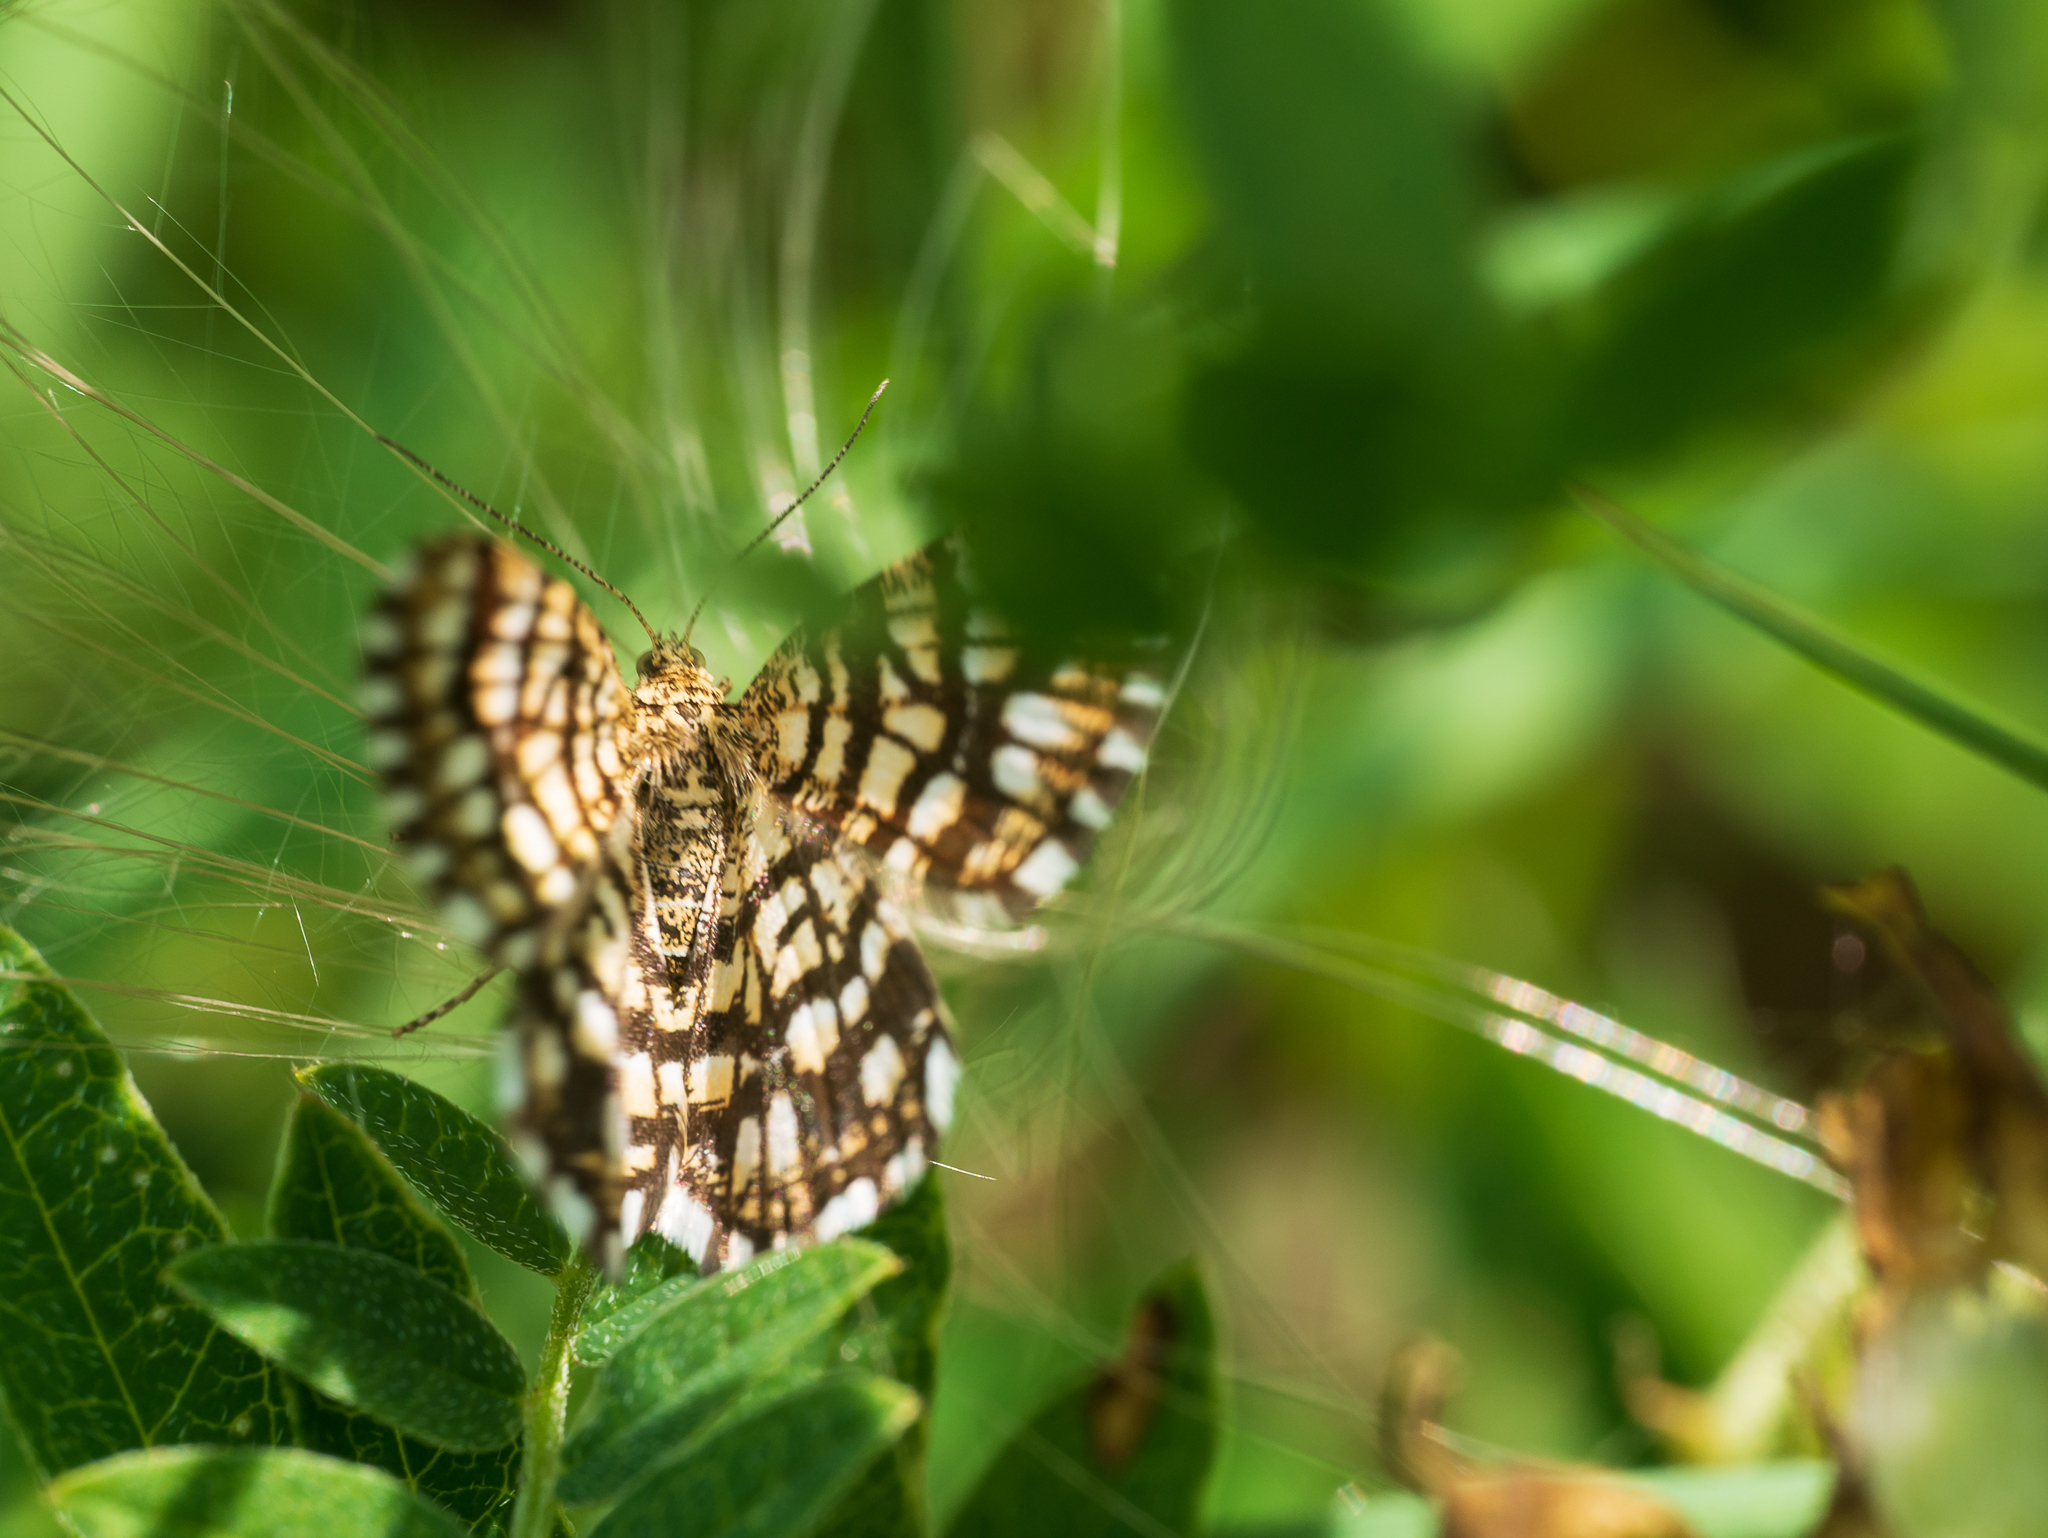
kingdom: Animalia
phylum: Arthropoda
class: Insecta
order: Lepidoptera
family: Geometridae
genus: Chiasmia
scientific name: Chiasmia clathrata
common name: Latticed heath
